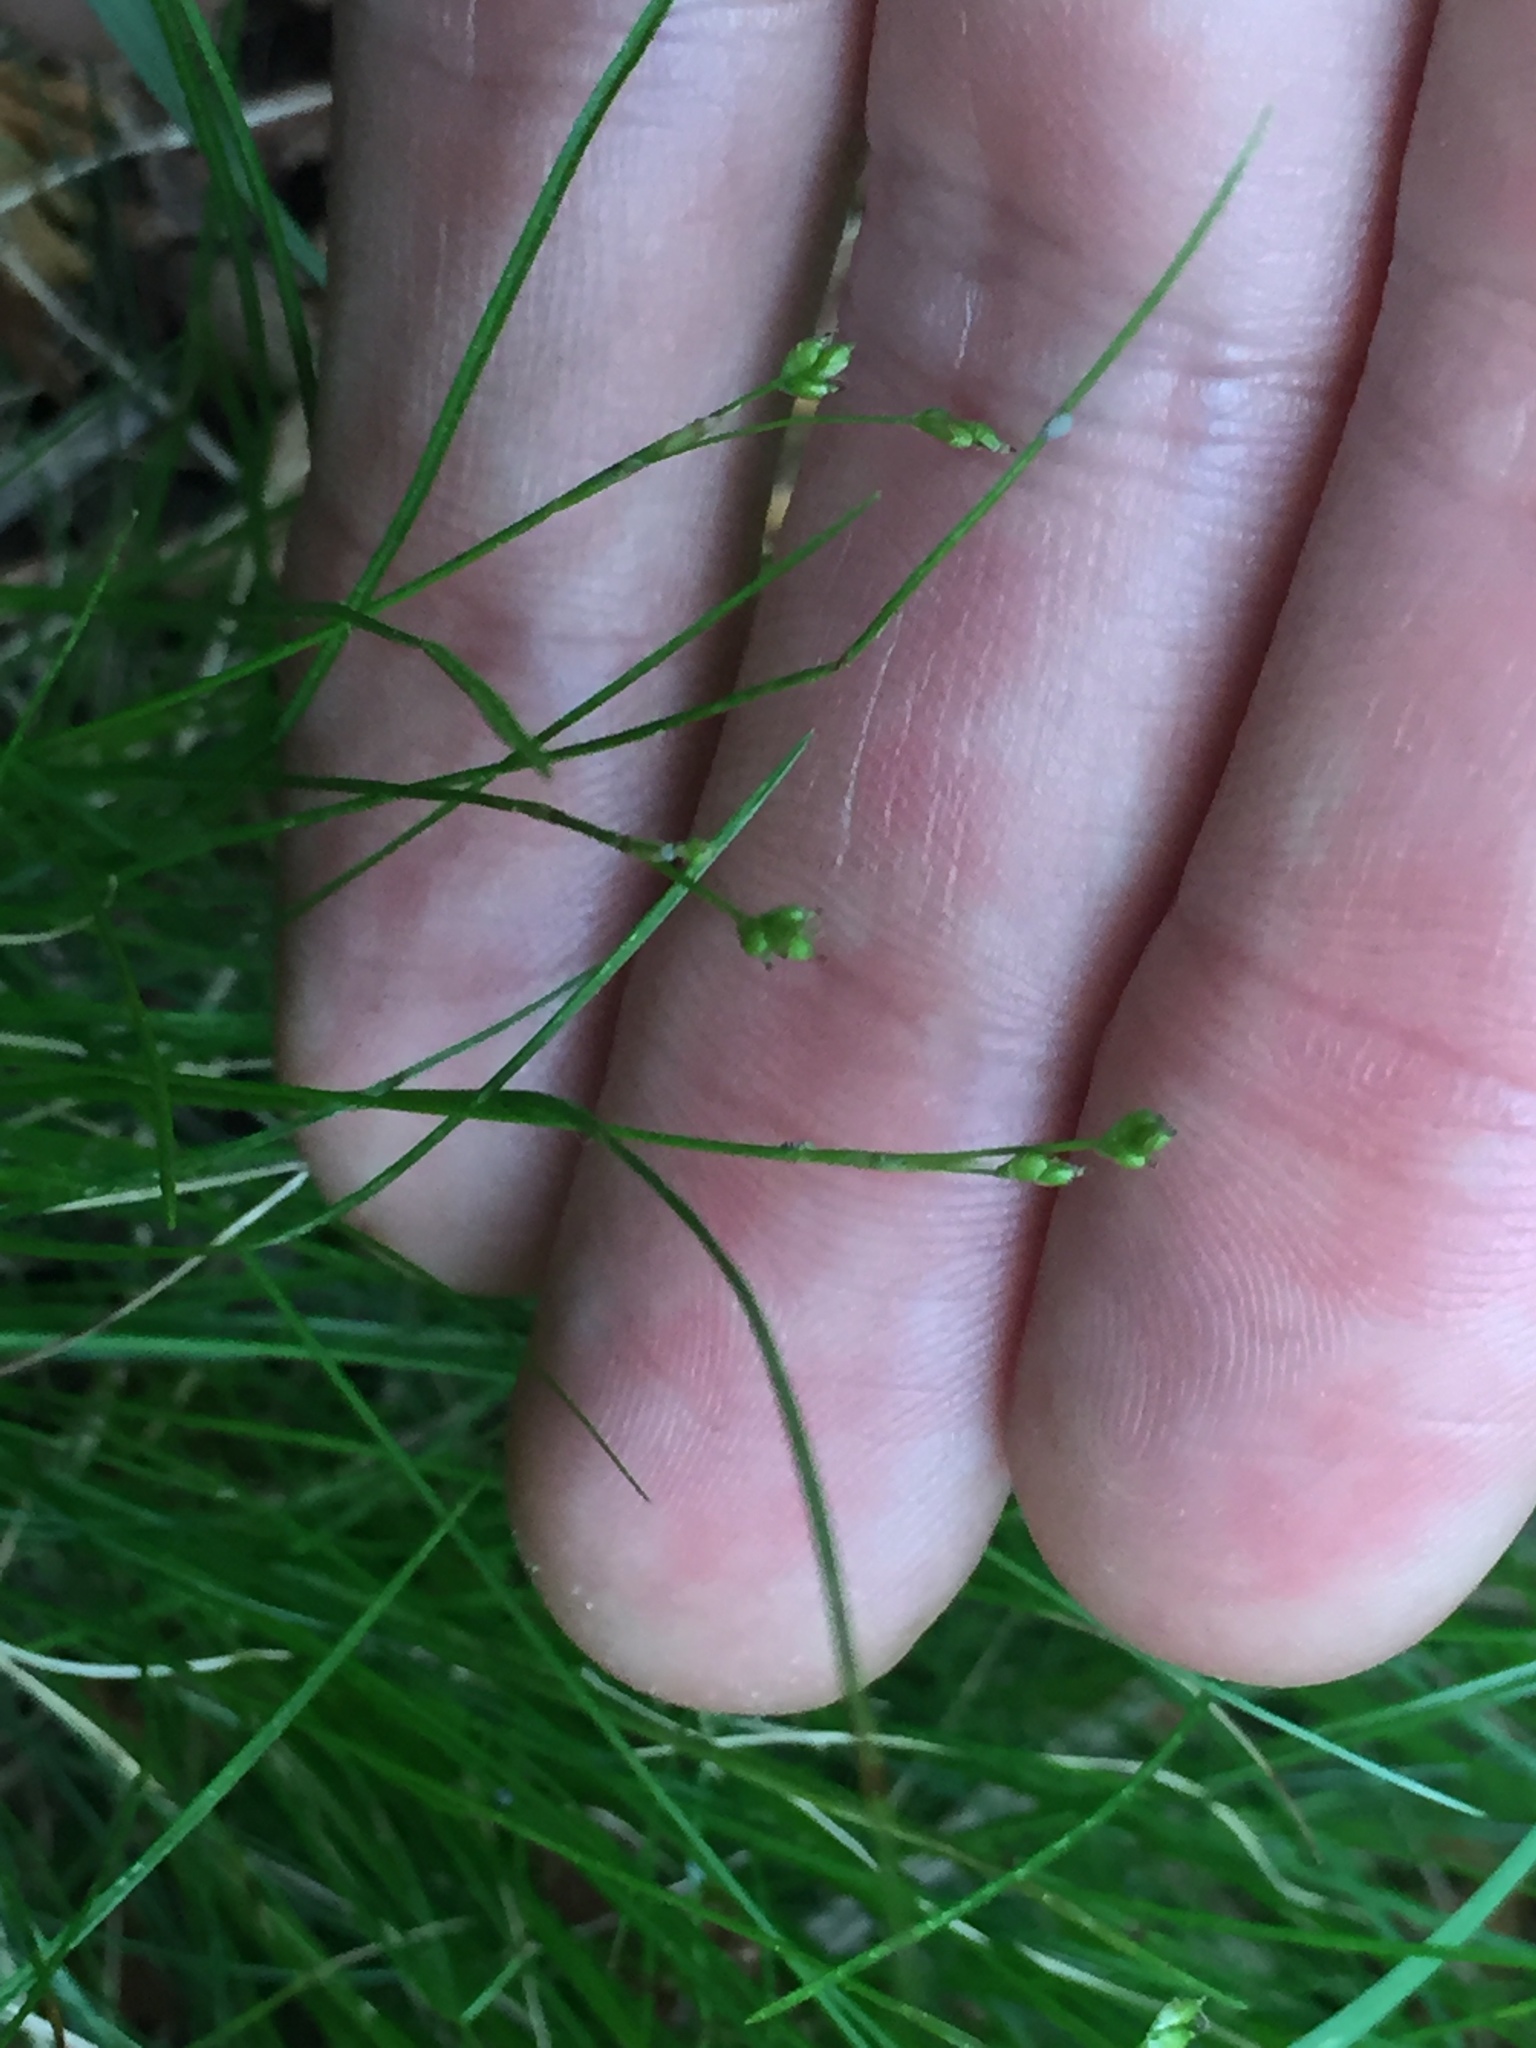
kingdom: Plantae
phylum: Tracheophyta
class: Liliopsida
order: Poales
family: Cyperaceae
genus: Carex
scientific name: Carex eburnea
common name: Bristle-leaved sedge
